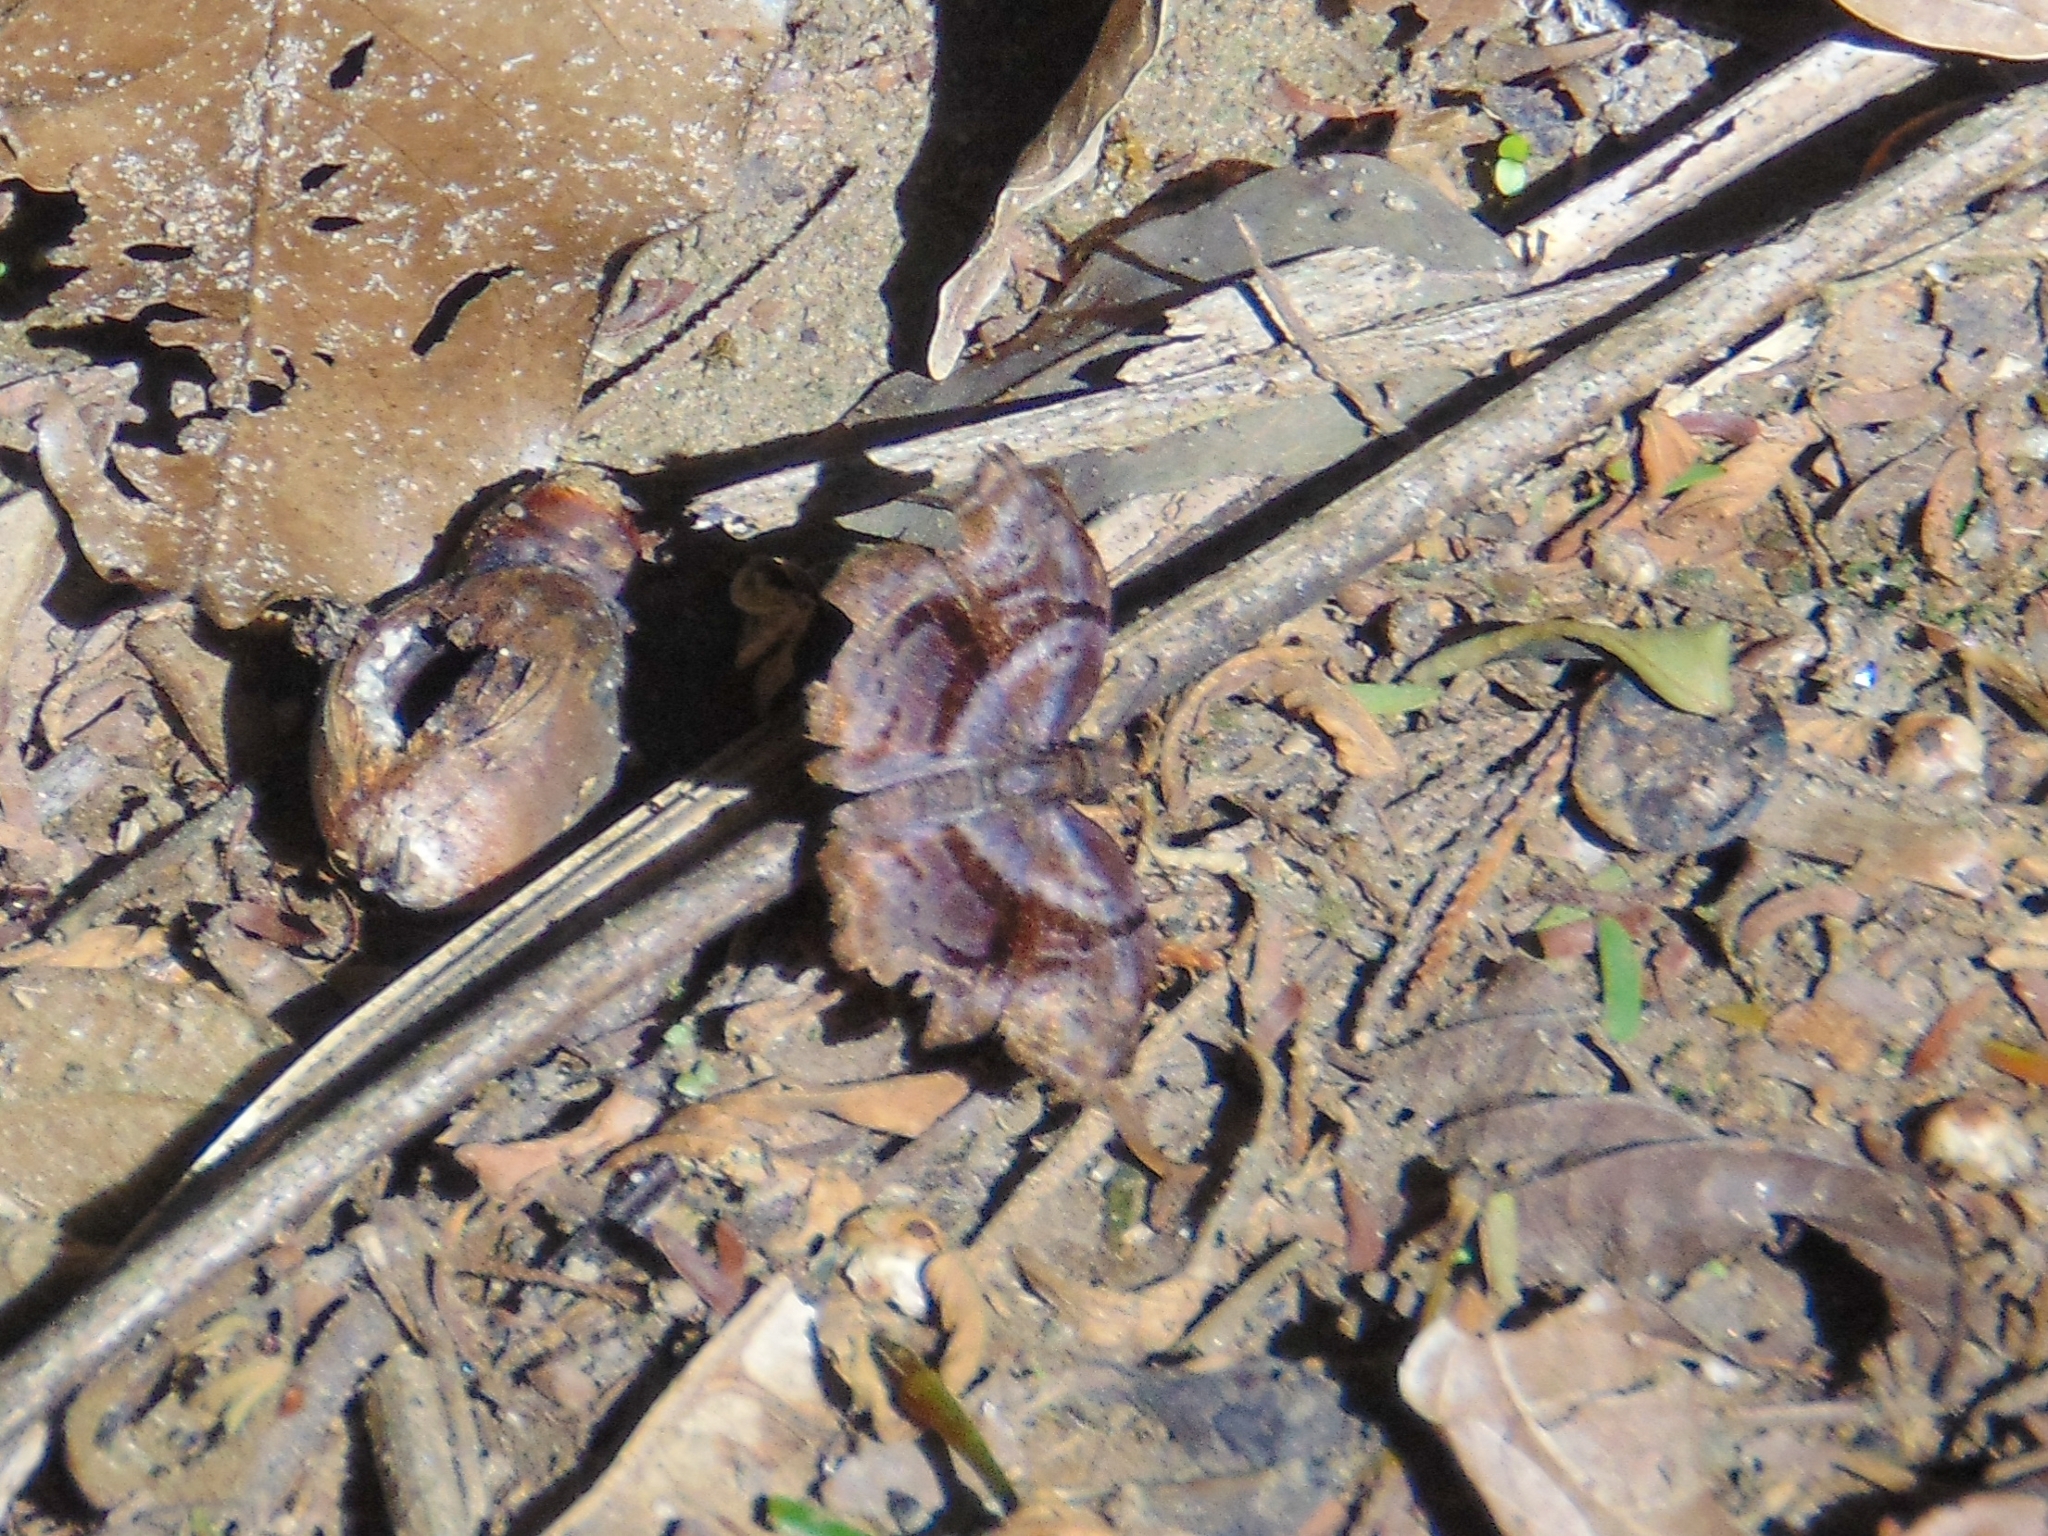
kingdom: Animalia
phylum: Arthropoda
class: Insecta
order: Lepidoptera
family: Hesperiidae
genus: Helias
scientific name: Helias phalaenoides
